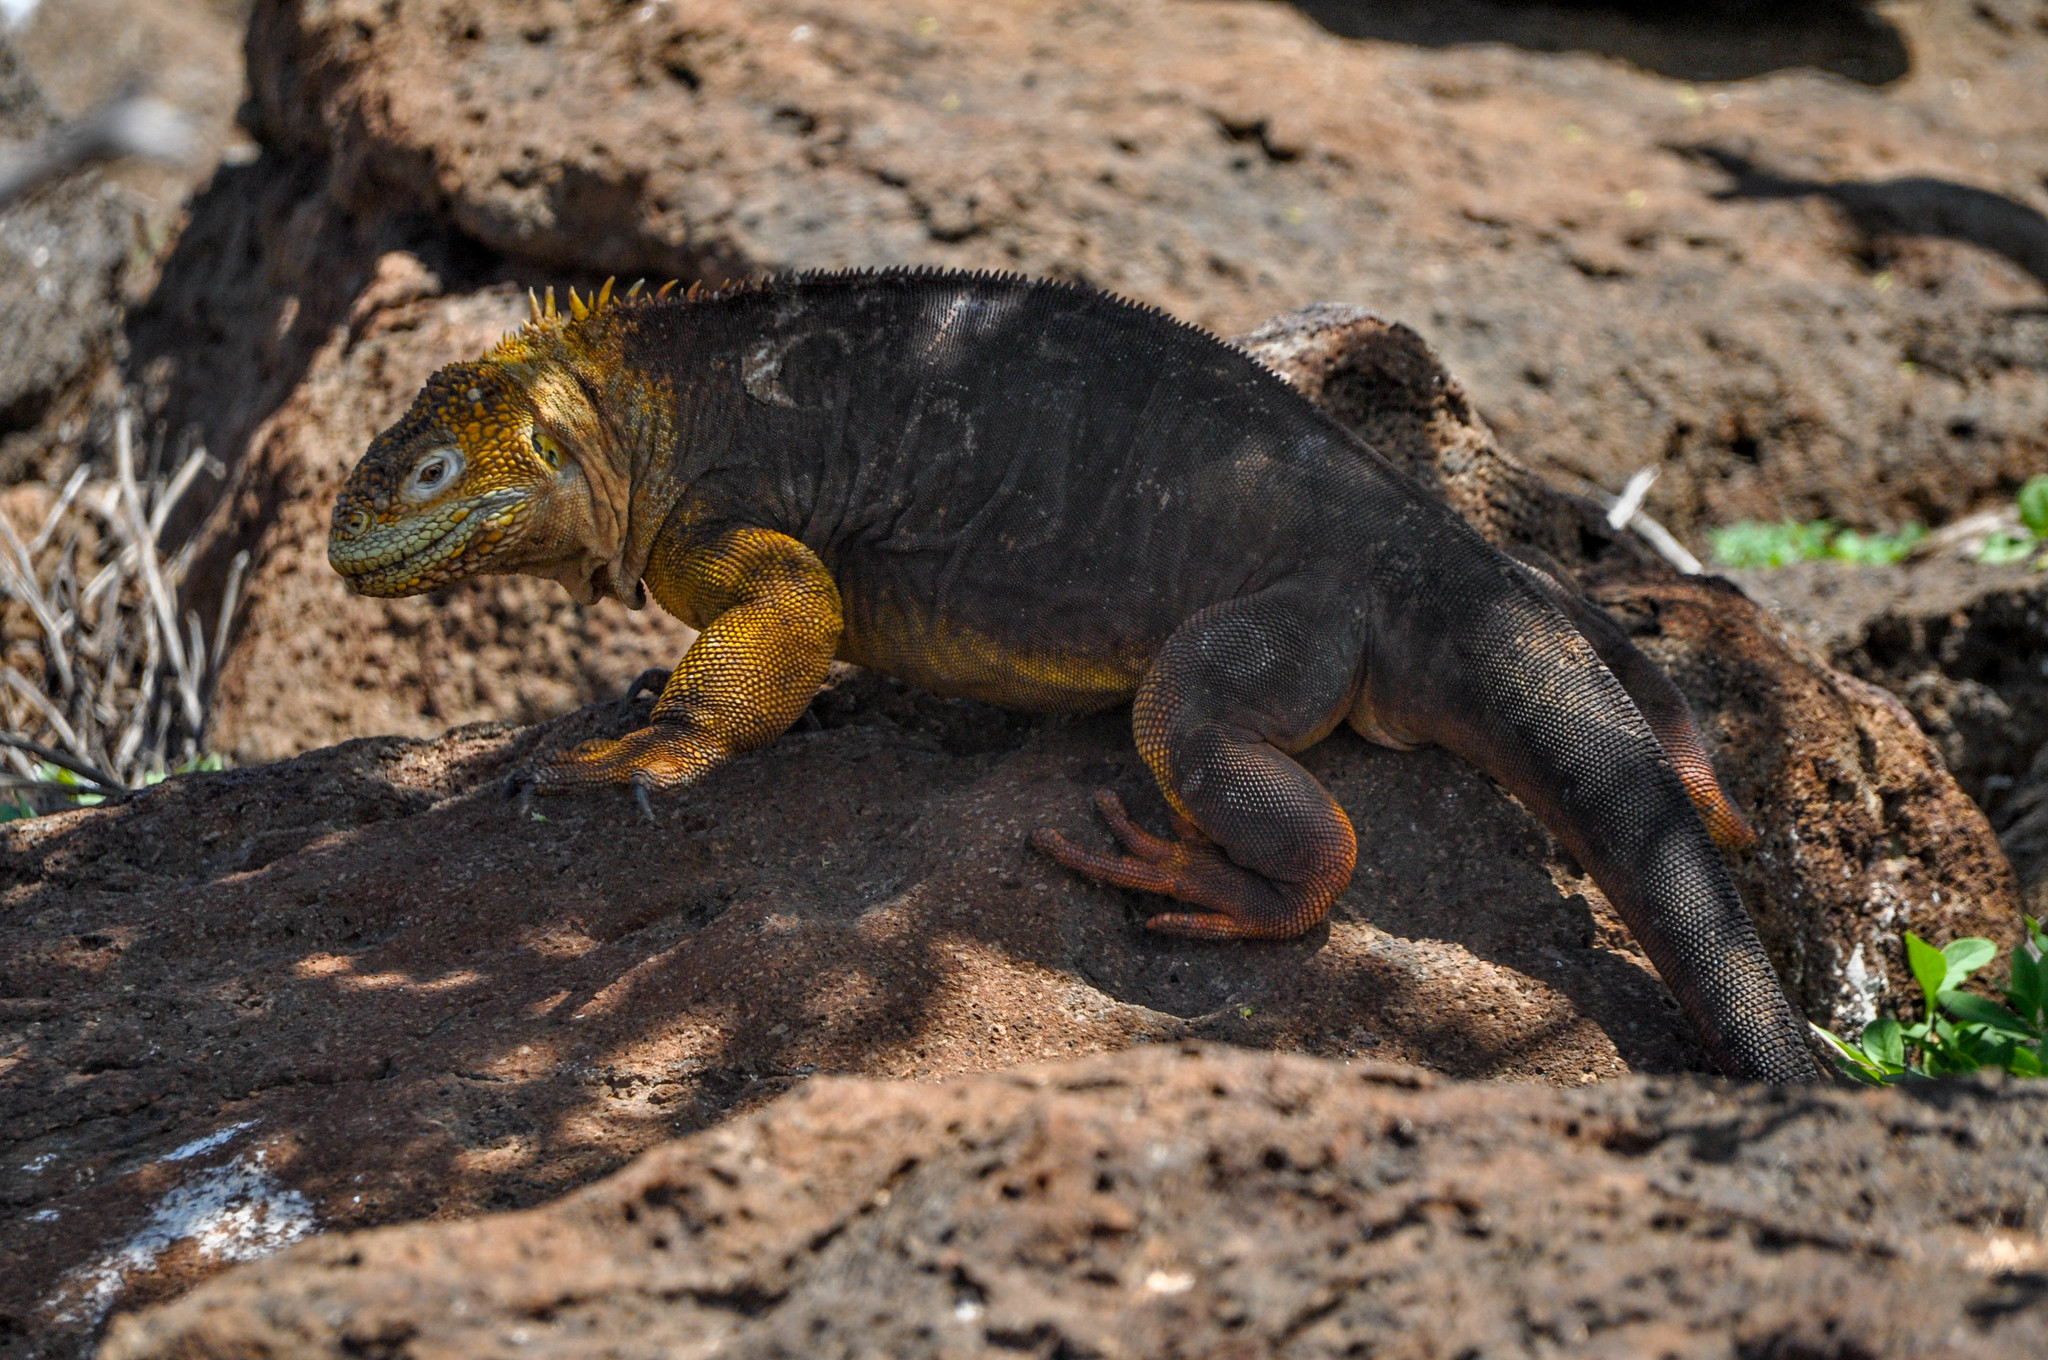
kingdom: Animalia
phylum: Chordata
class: Squamata
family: Iguanidae
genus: Conolophus
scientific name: Conolophus subcristatus
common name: Galapagos land iguana
